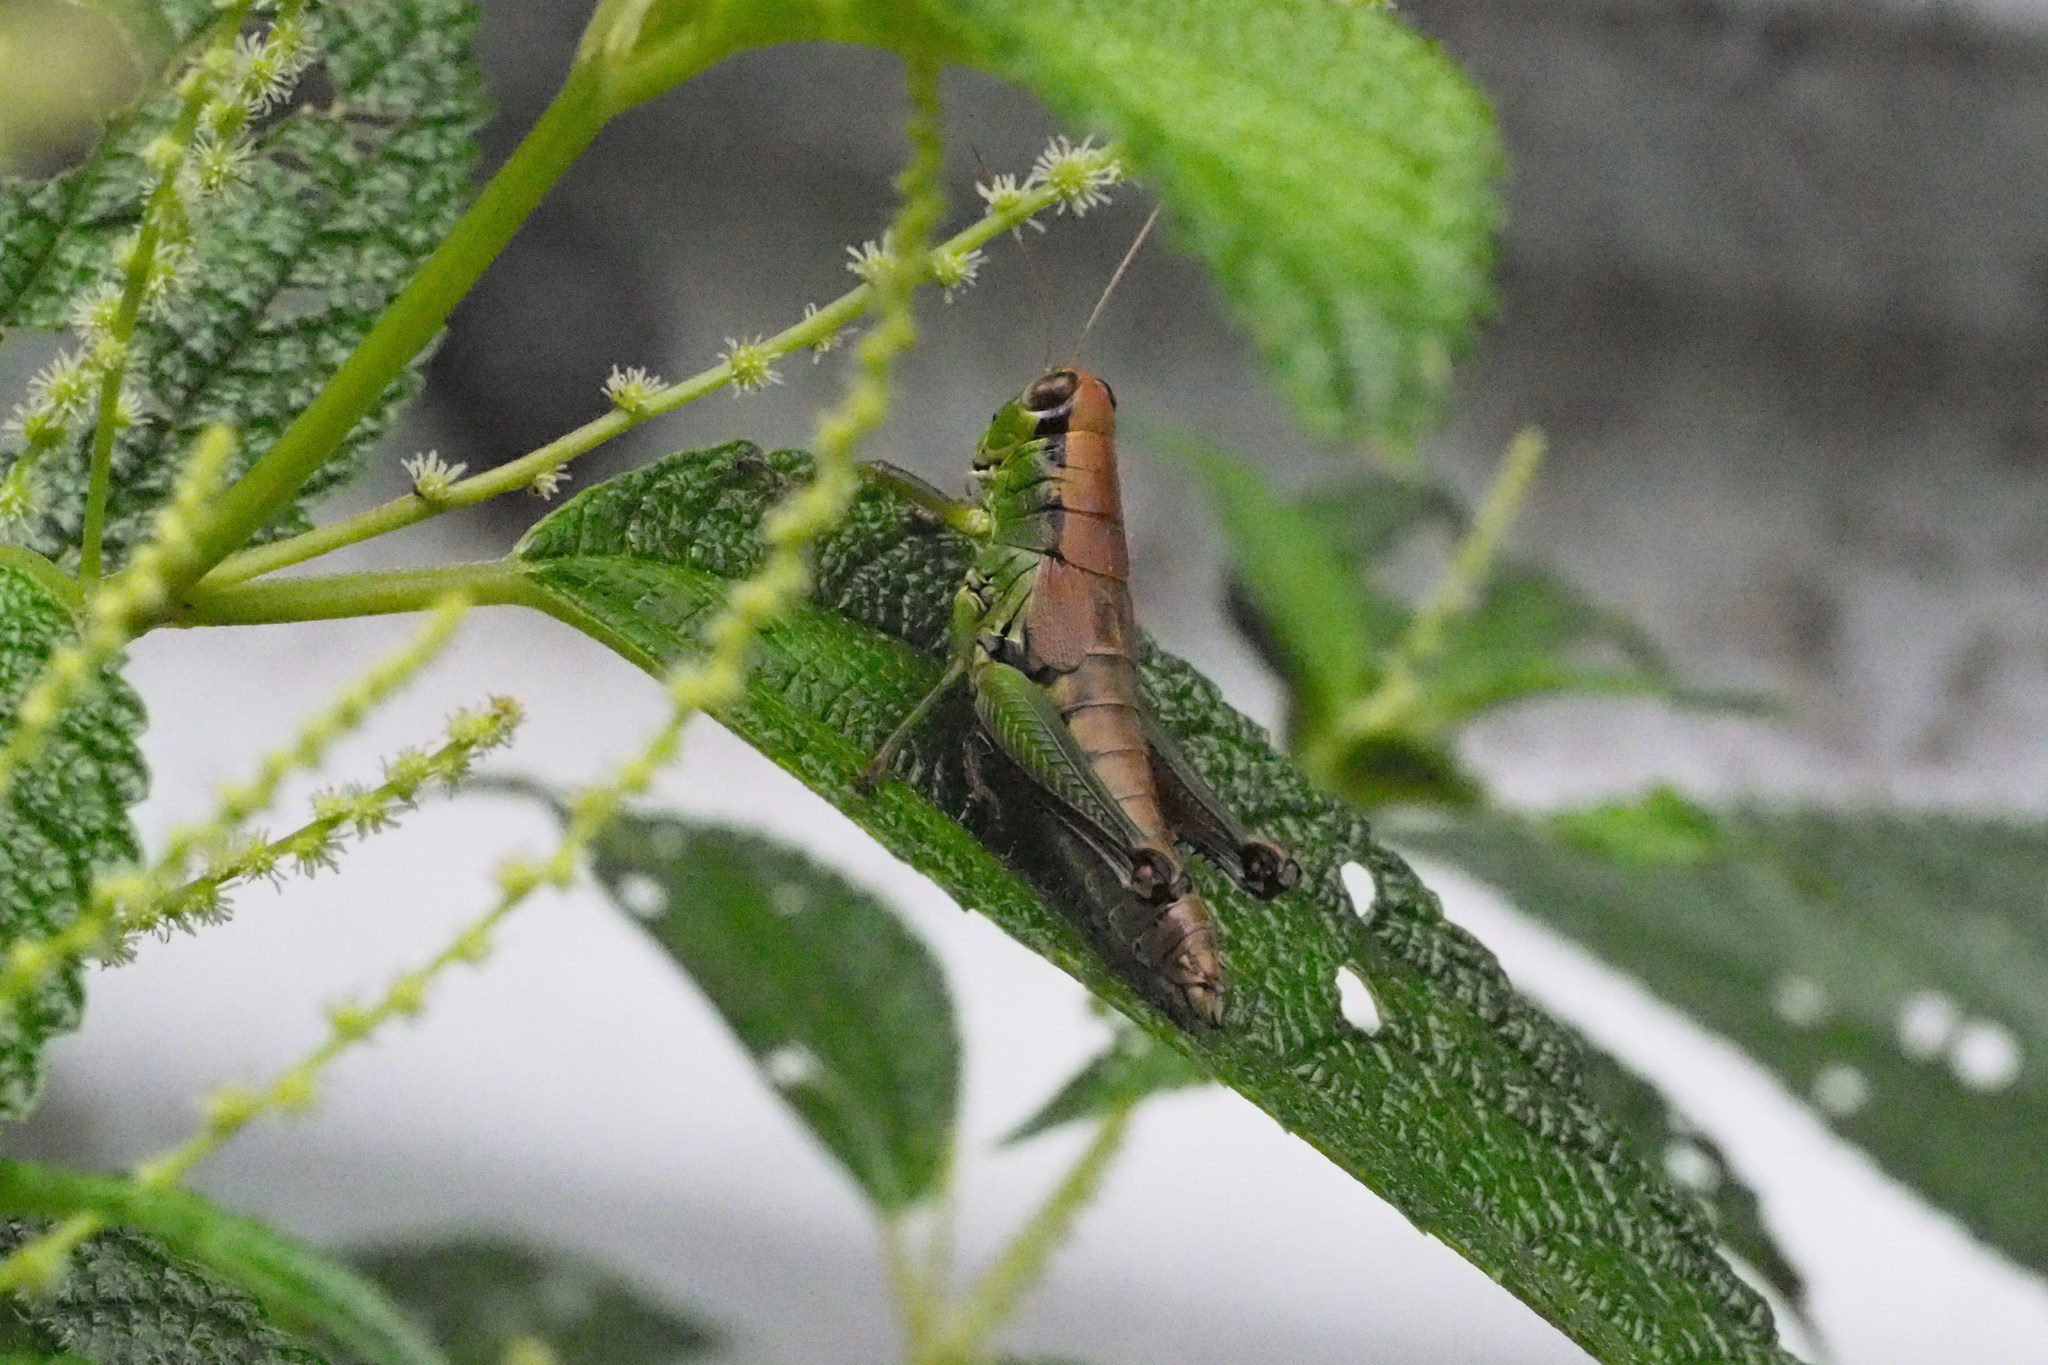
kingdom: Animalia
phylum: Arthropoda
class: Insecta
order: Orthoptera
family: Acrididae
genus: Parapodisma
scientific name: Parapodisma tenryuensis
